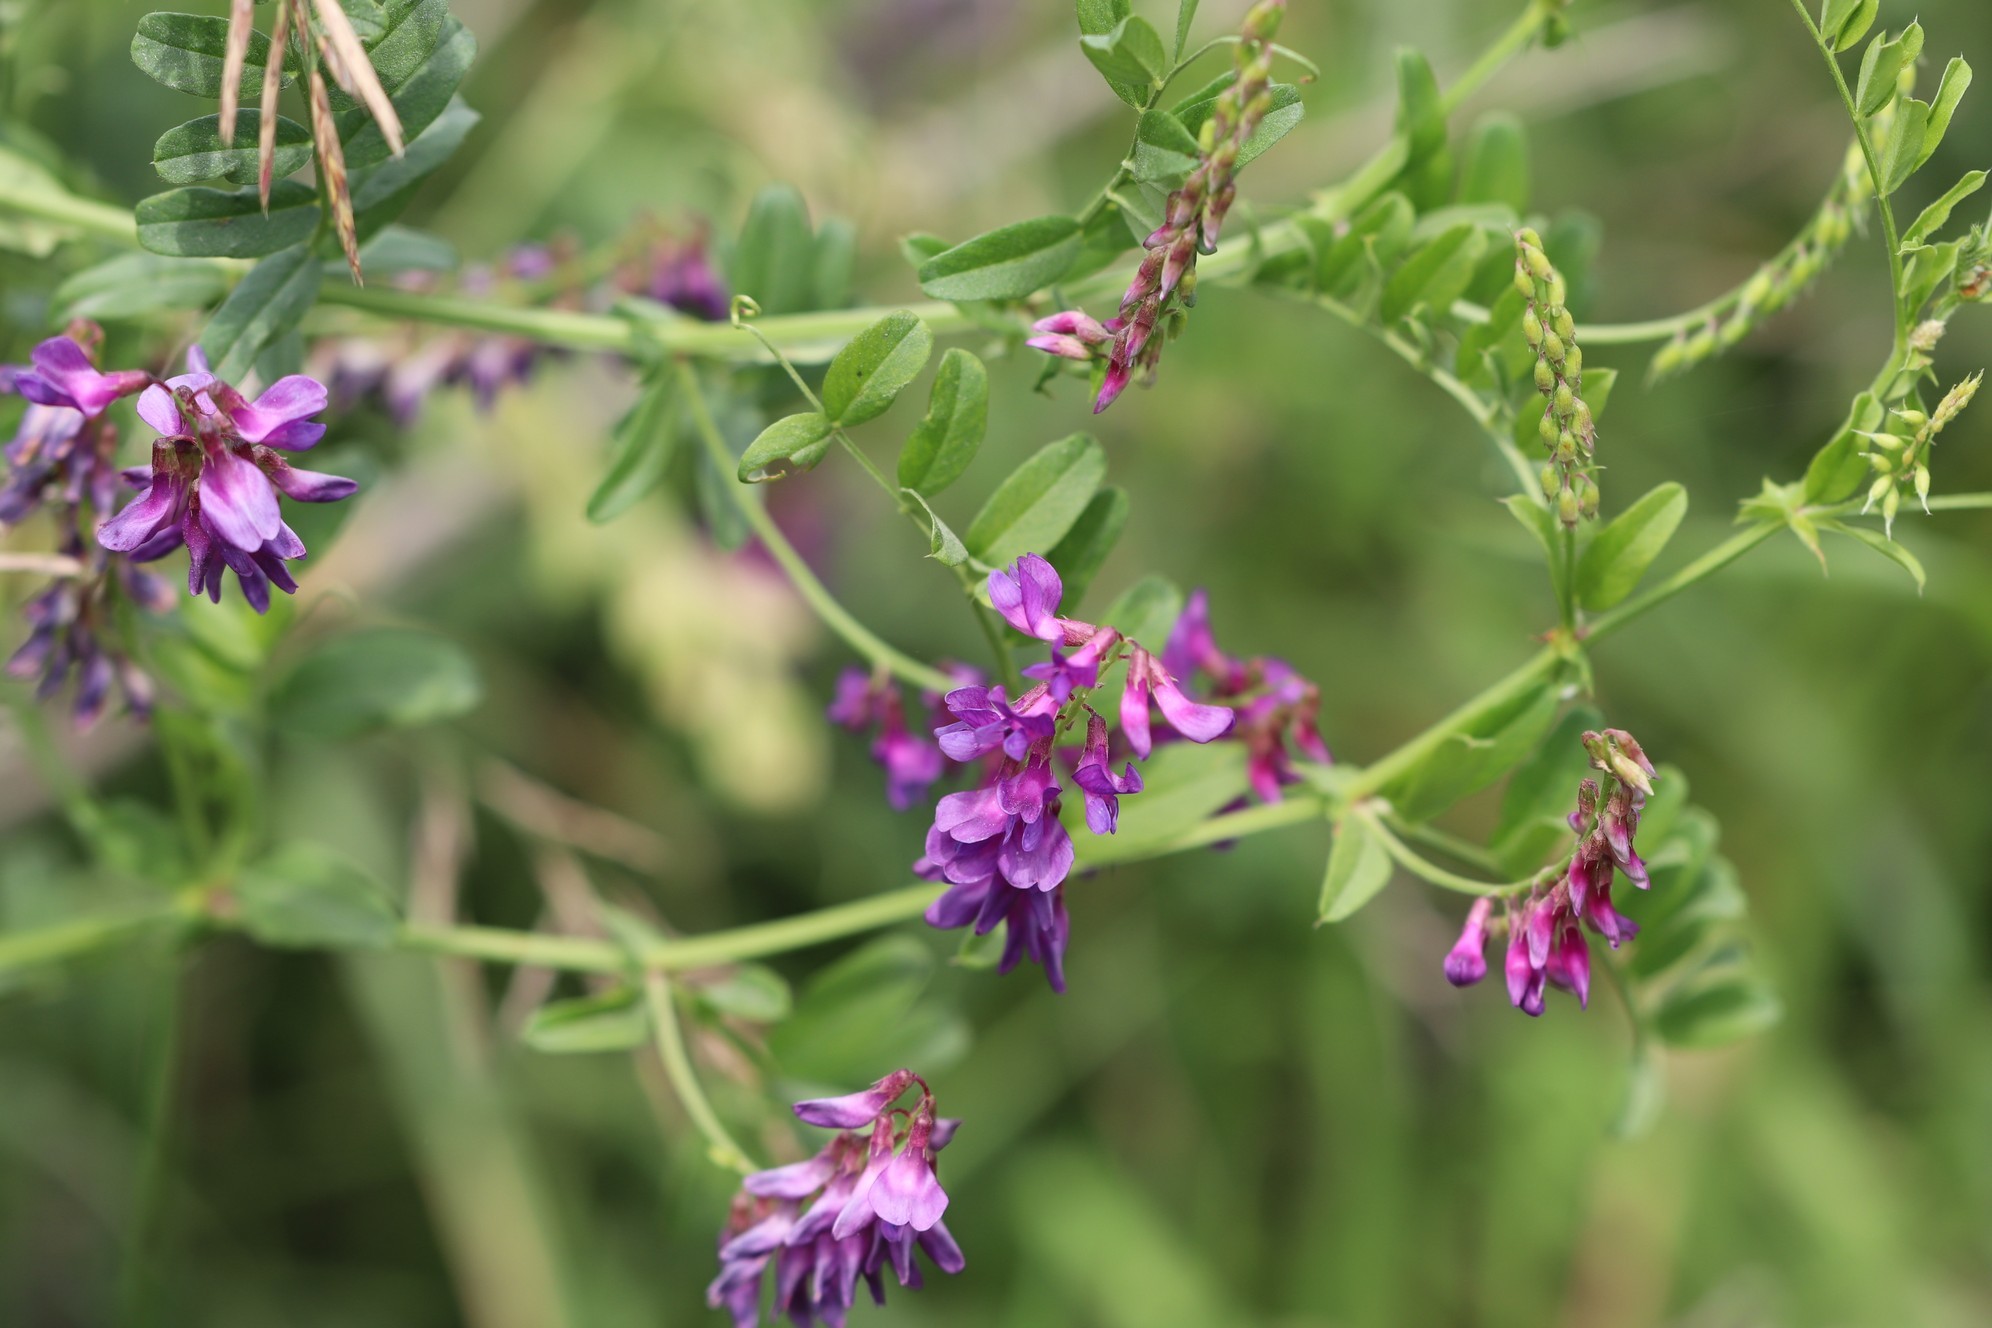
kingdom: Plantae
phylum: Tracheophyta
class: Magnoliopsida
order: Fabales
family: Fabaceae
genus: Vicia
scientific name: Vicia amoena
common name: Cheder ebs
